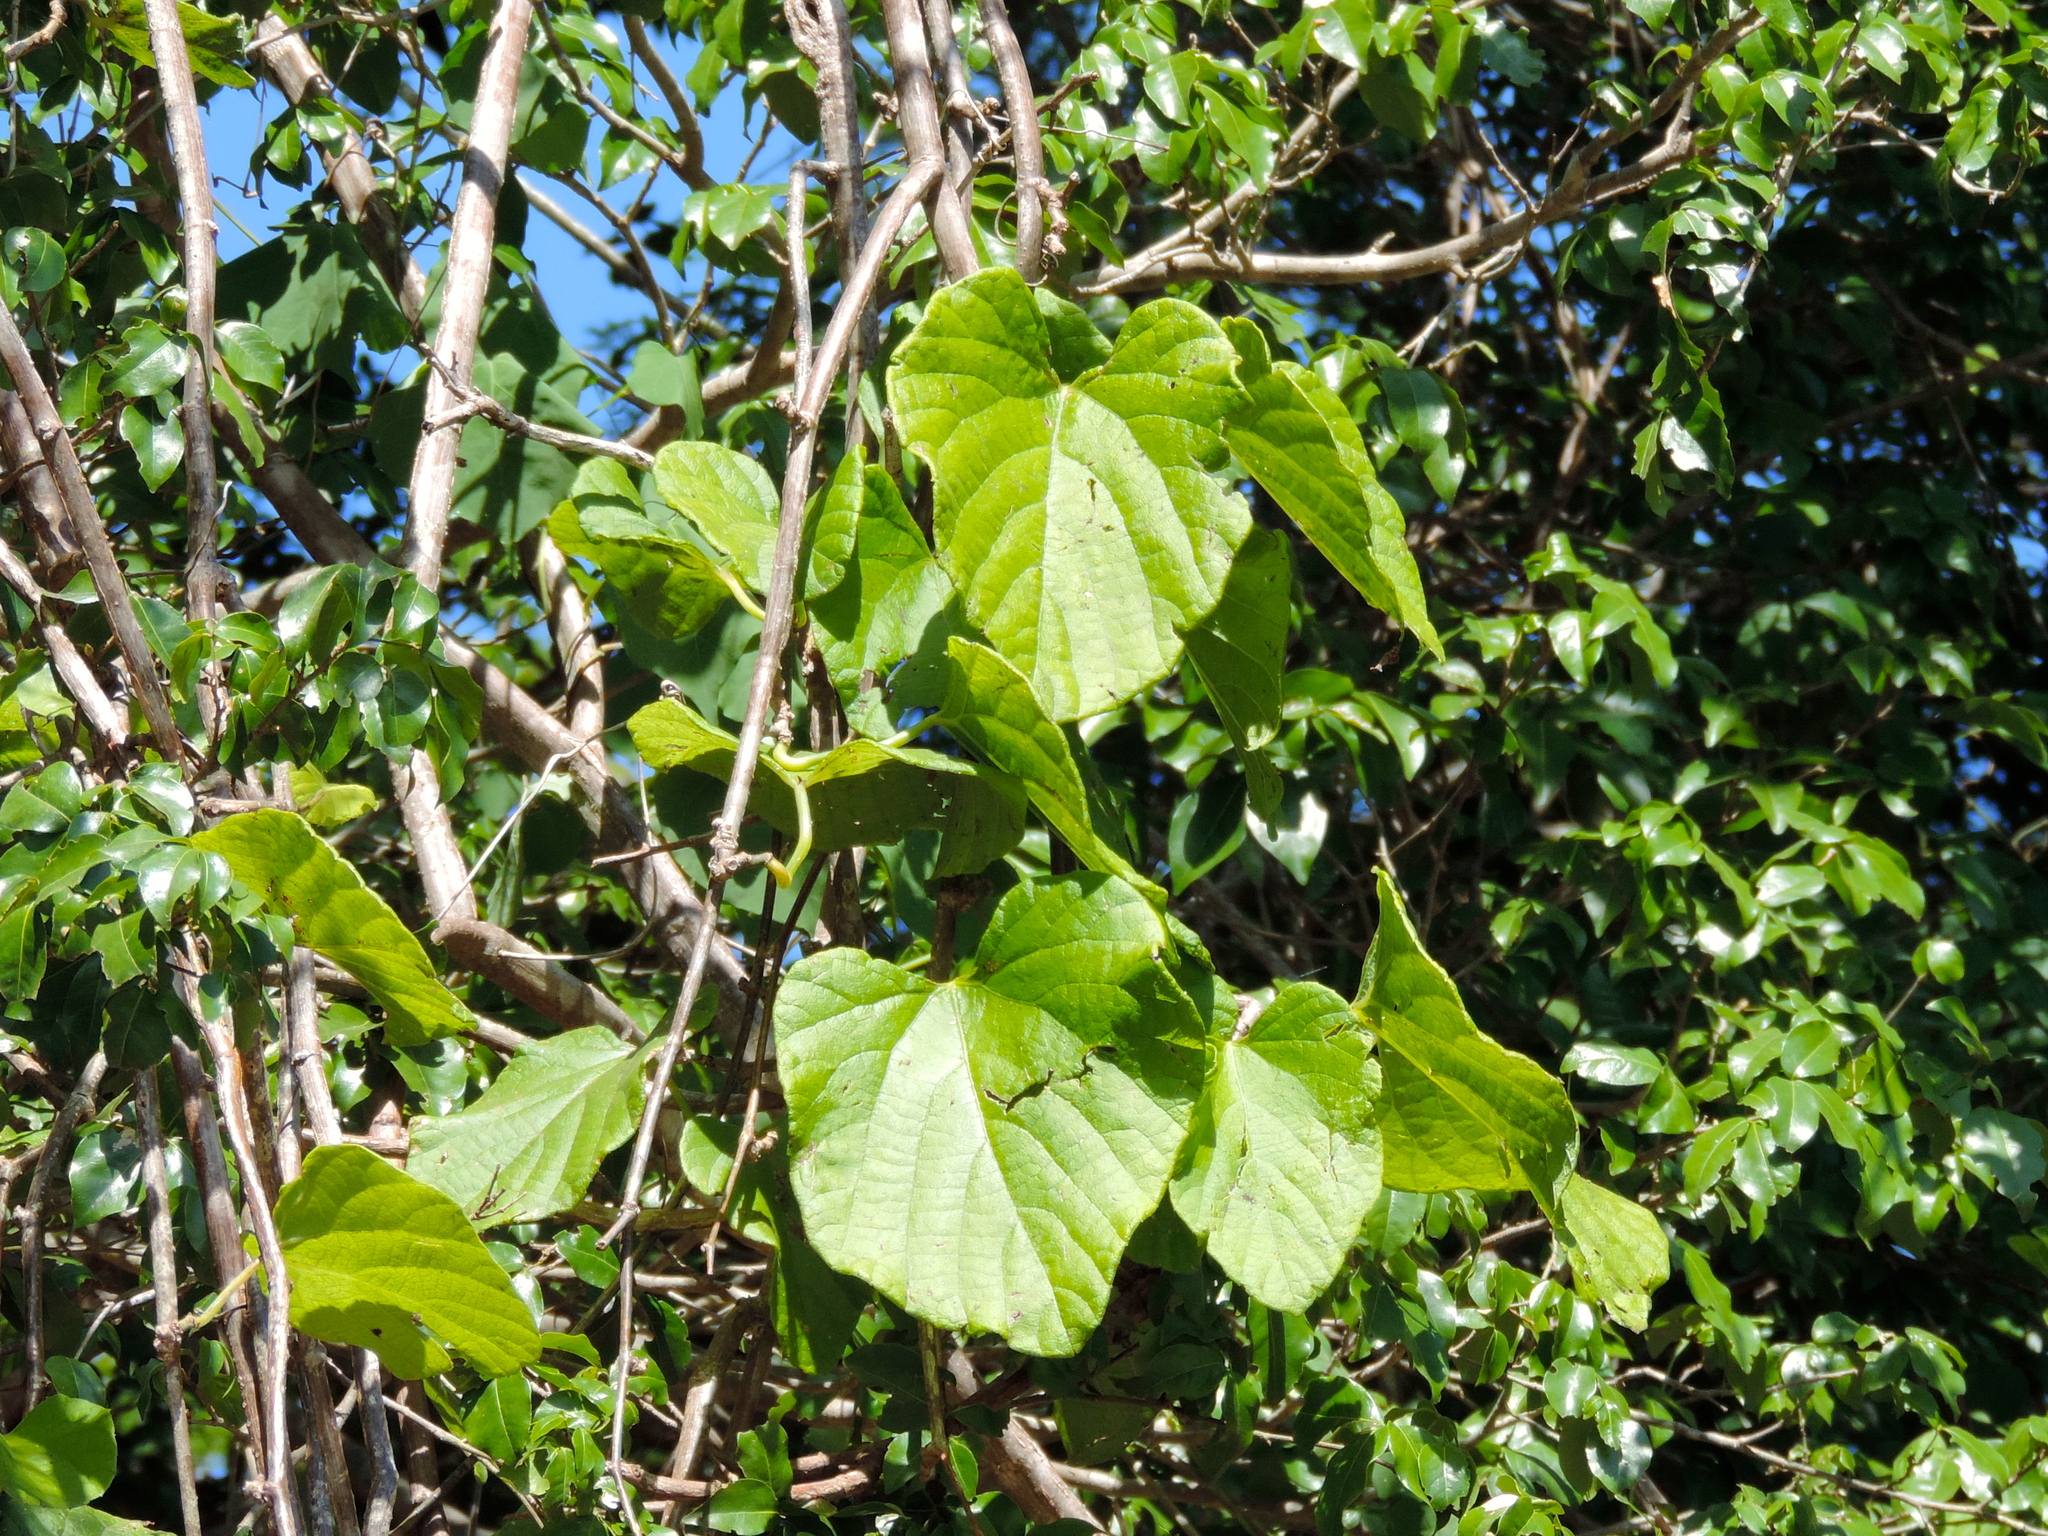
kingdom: Plantae
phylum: Tracheophyta
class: Magnoliopsida
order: Vitales
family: Vitaceae
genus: Cissus
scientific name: Cissus trifoliata
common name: Vine-sorrel
